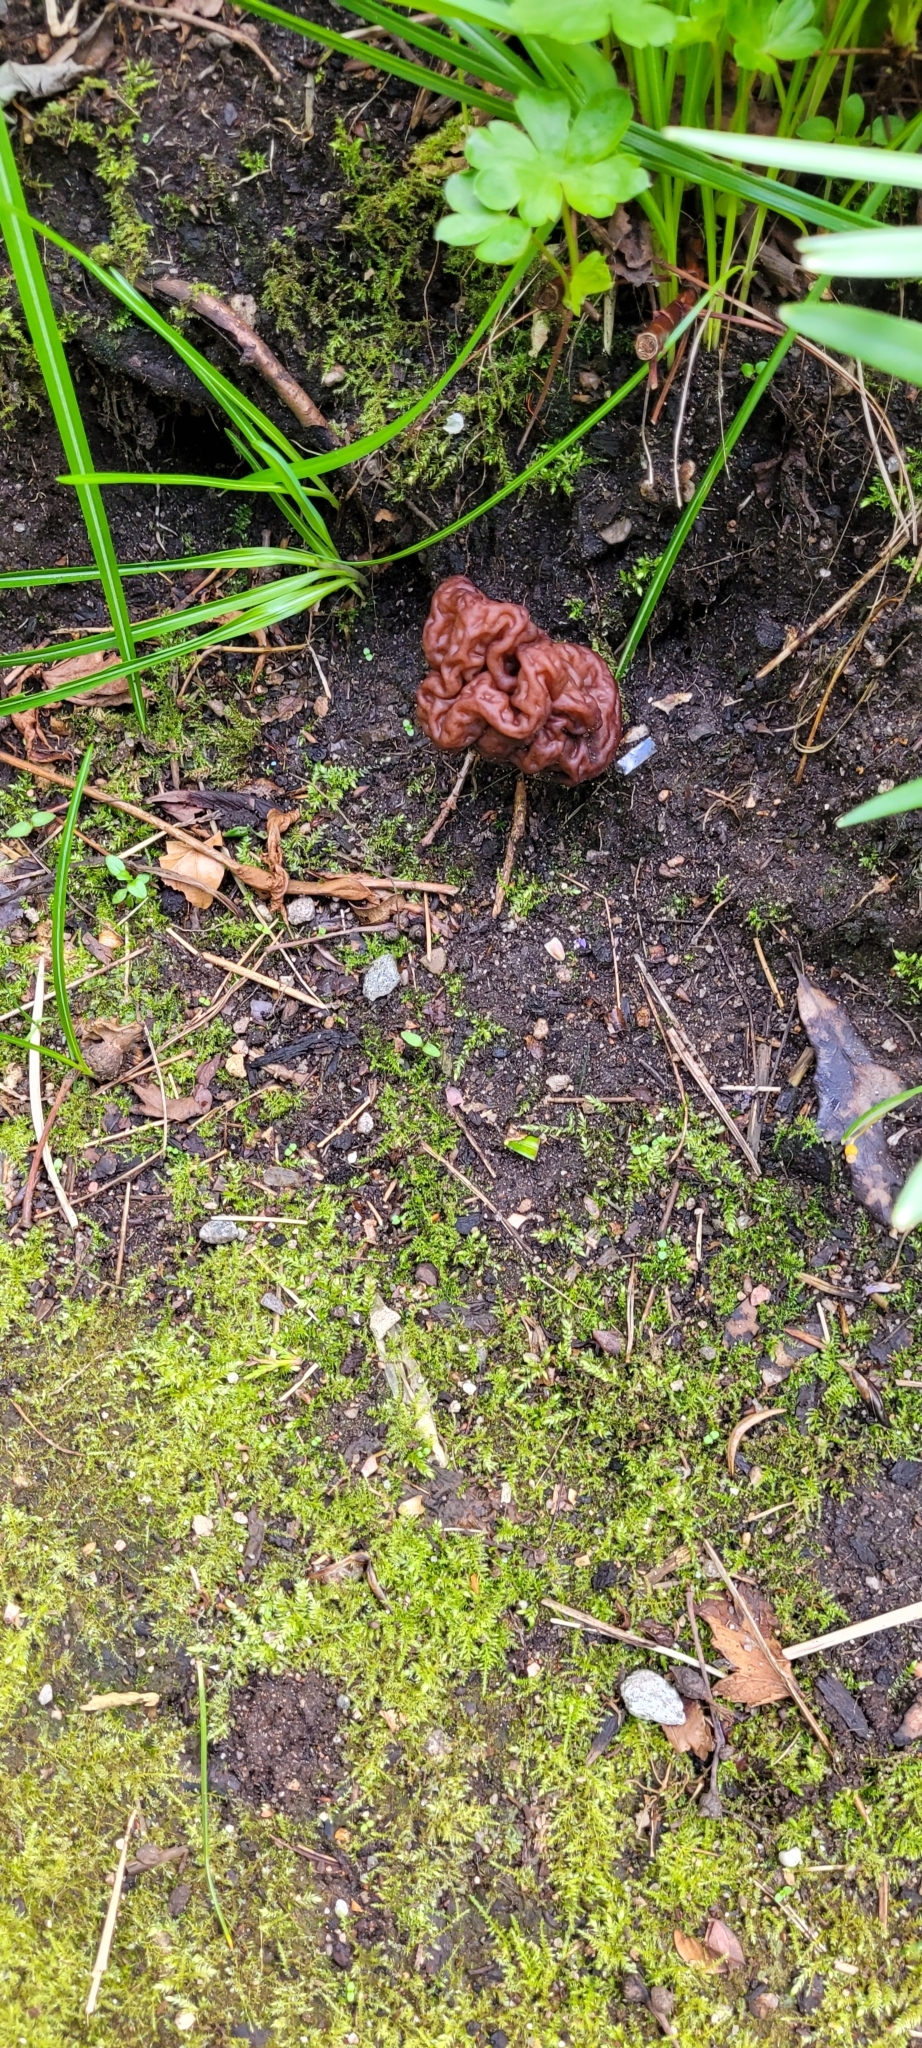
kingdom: Fungi
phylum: Ascomycota
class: Pezizomycetes
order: Pezizales
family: Discinaceae
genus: Gyromitra
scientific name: Gyromitra esculenta
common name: False morel
